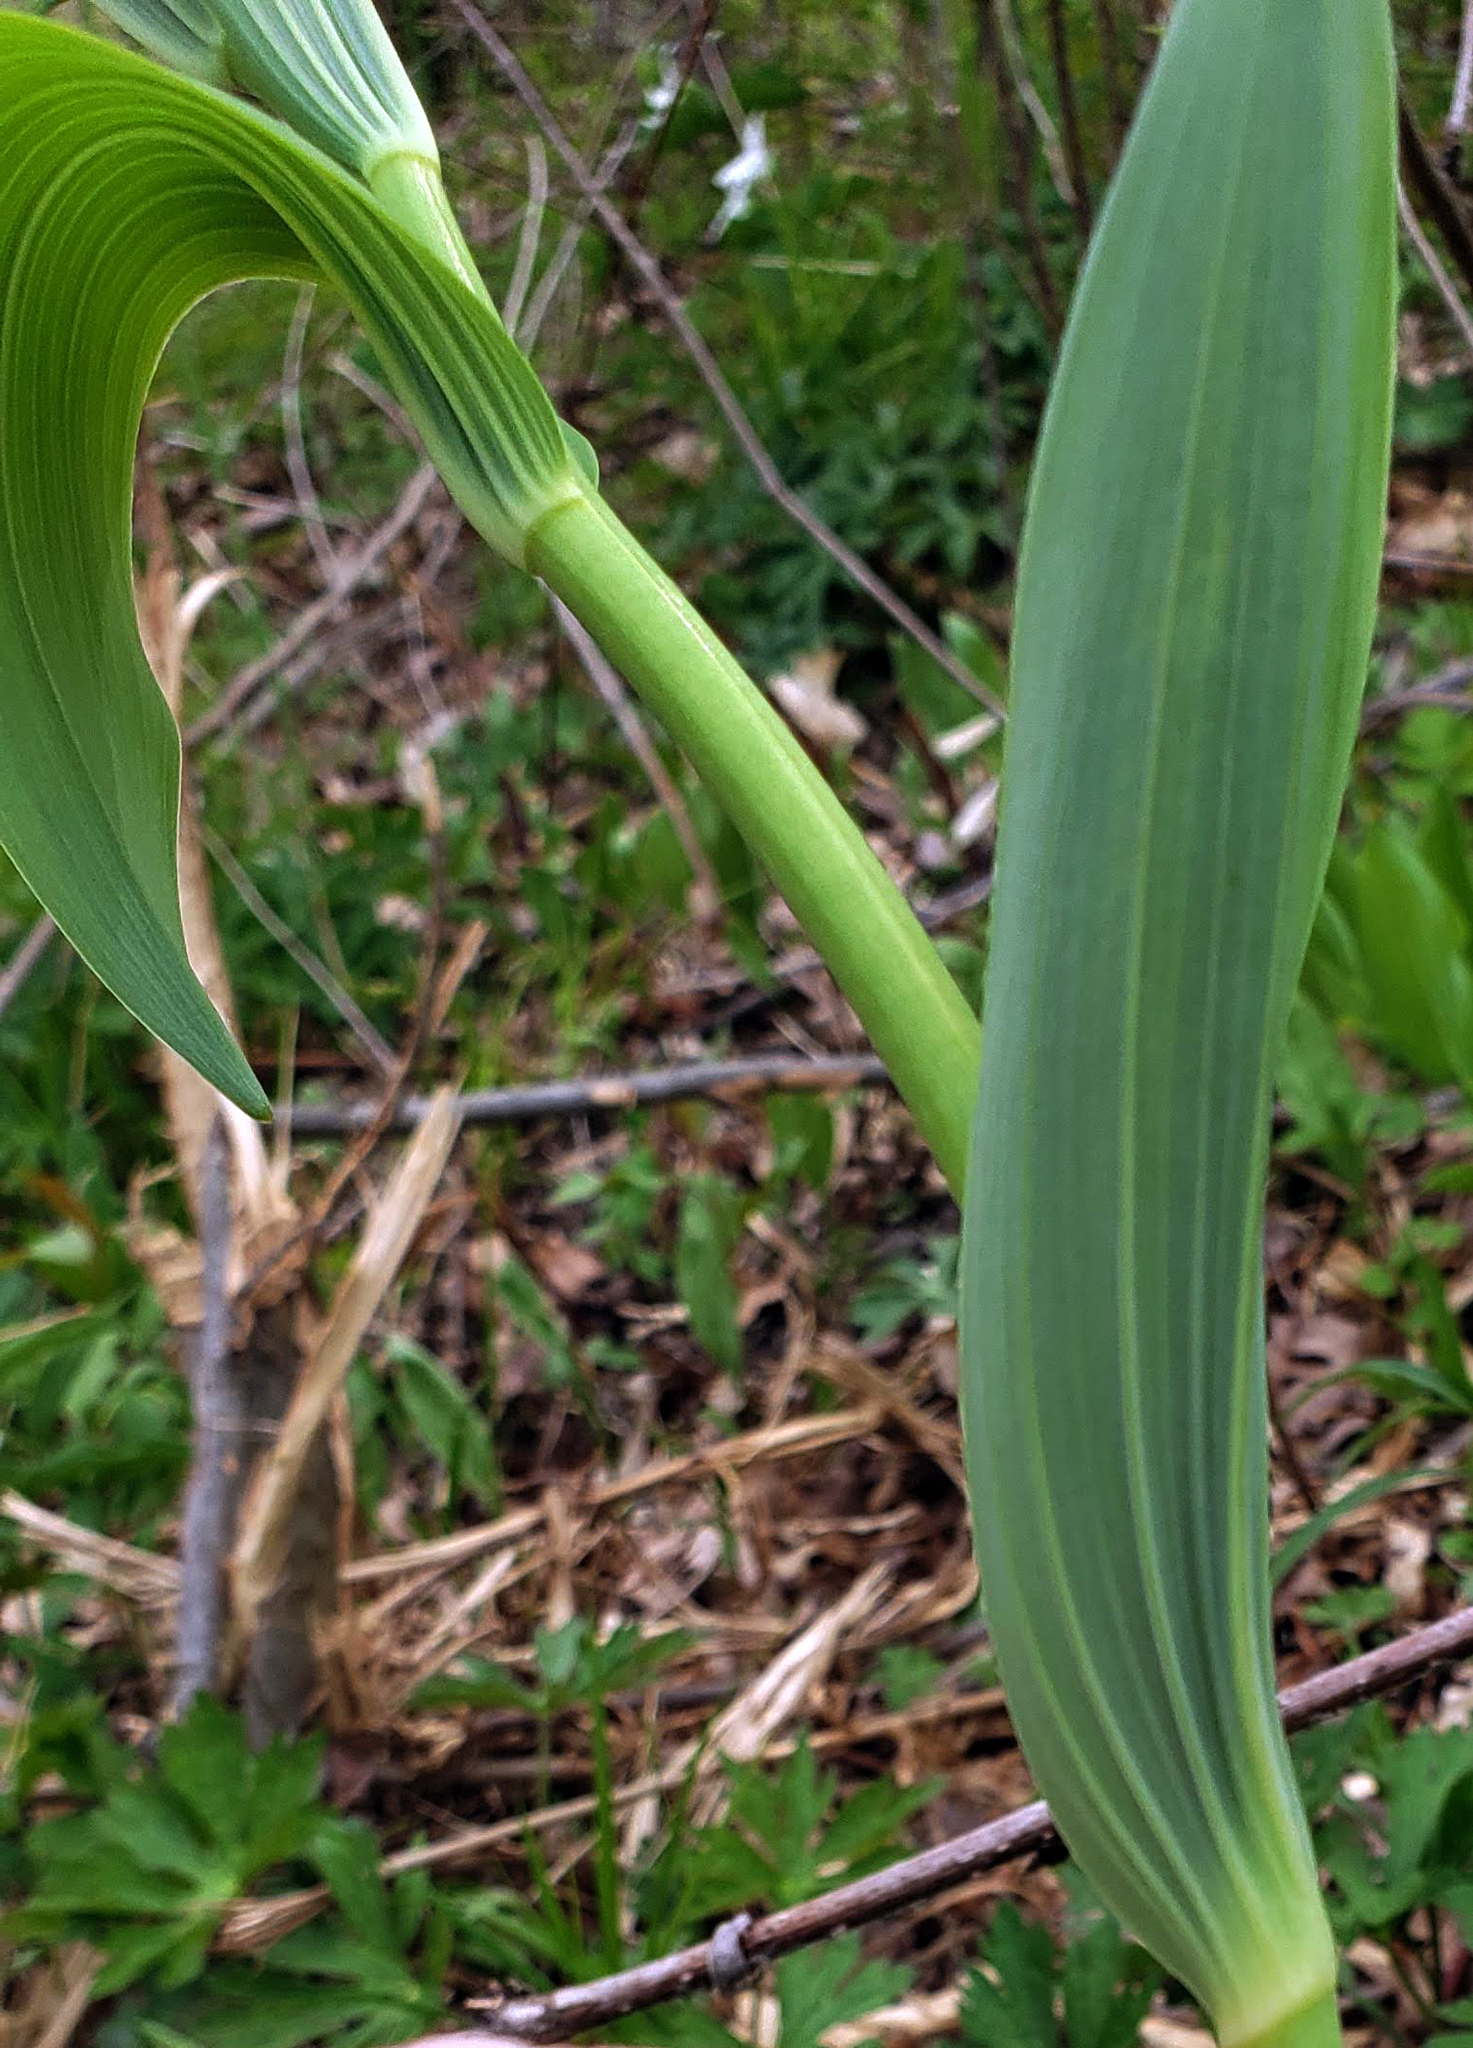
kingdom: Plantae
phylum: Tracheophyta
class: Liliopsida
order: Asparagales
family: Asparagaceae
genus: Polygonatum
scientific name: Polygonatum biflorum
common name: American solomon's-seal
